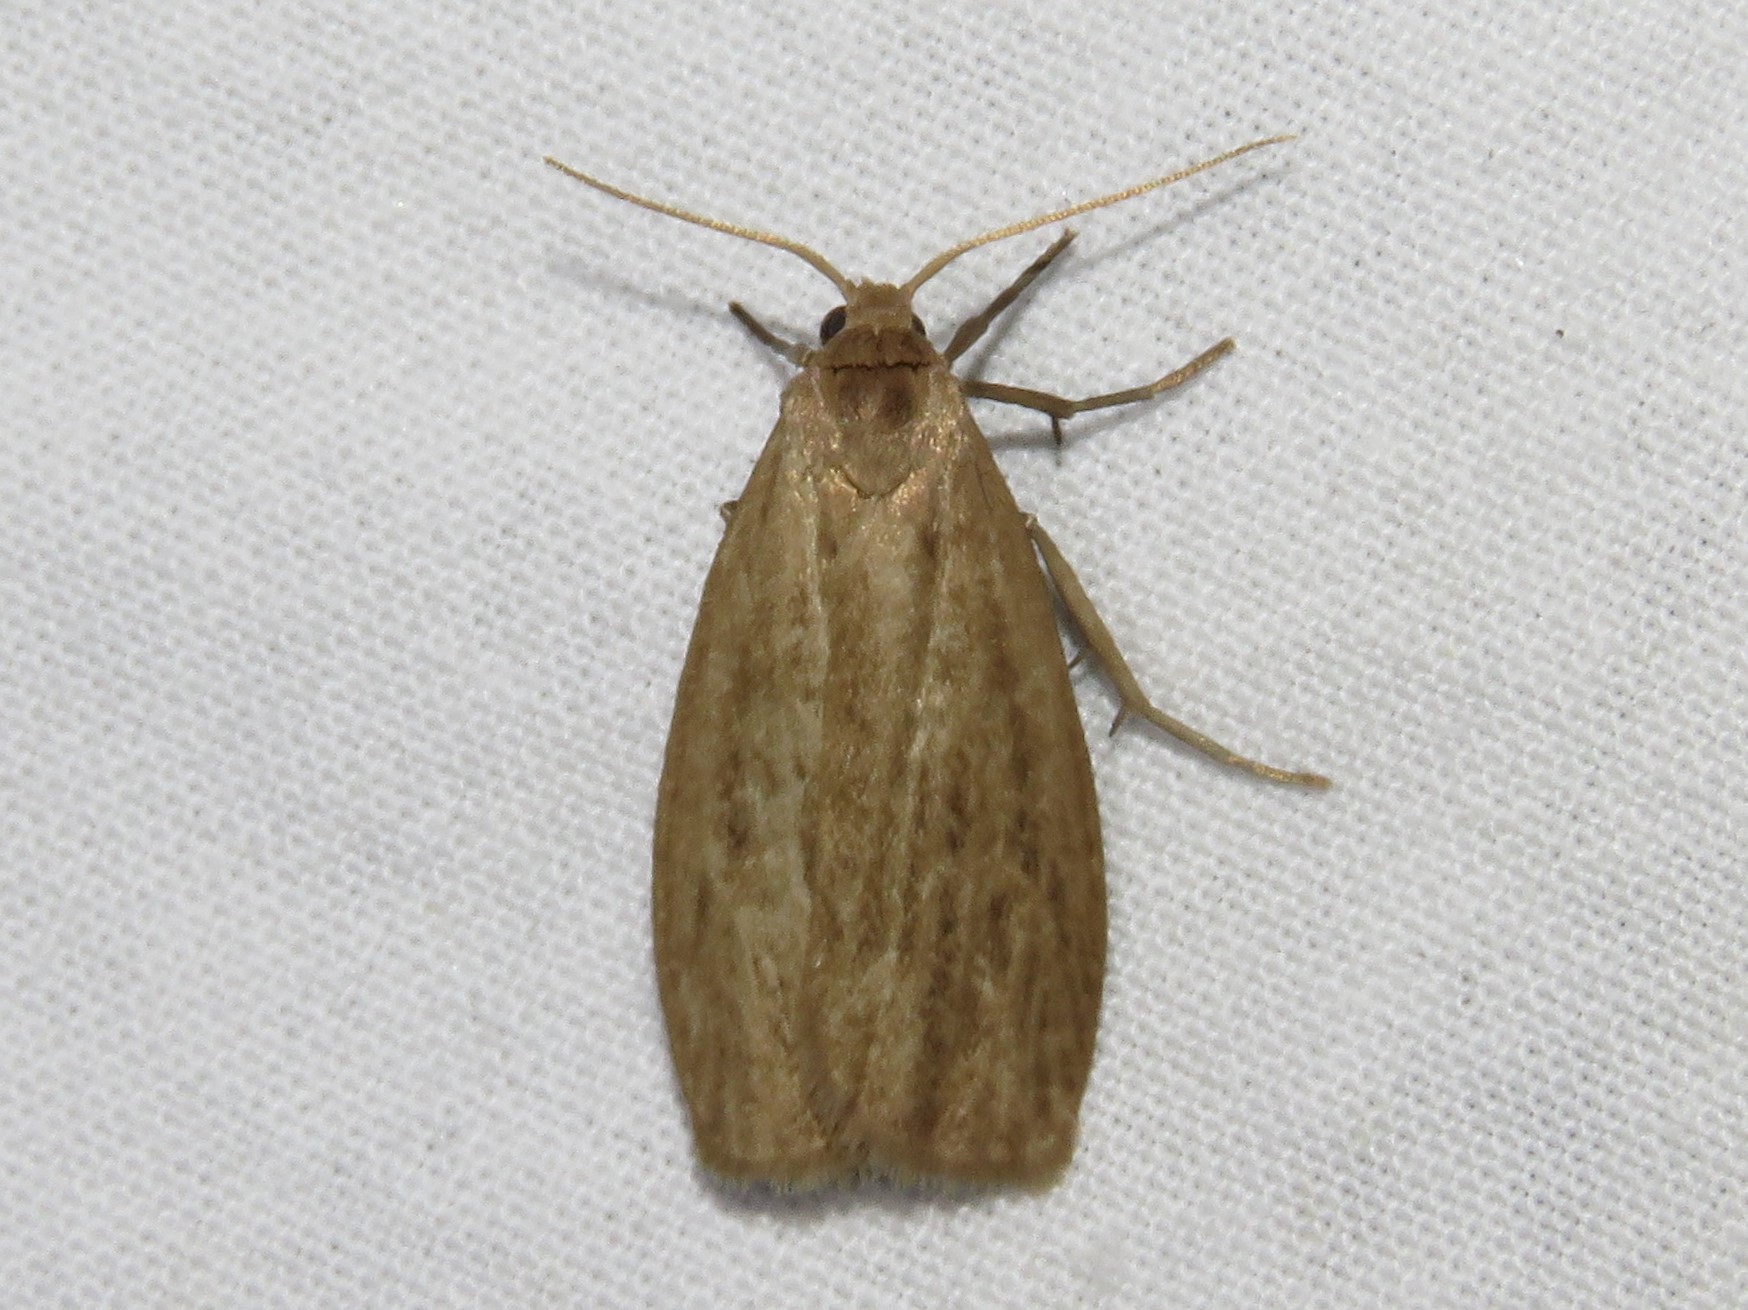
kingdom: Animalia
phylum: Arthropoda
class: Insecta
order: Lepidoptera
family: Erebidae
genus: Crambidia
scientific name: Crambidia pallida
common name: Pale lichen moth
